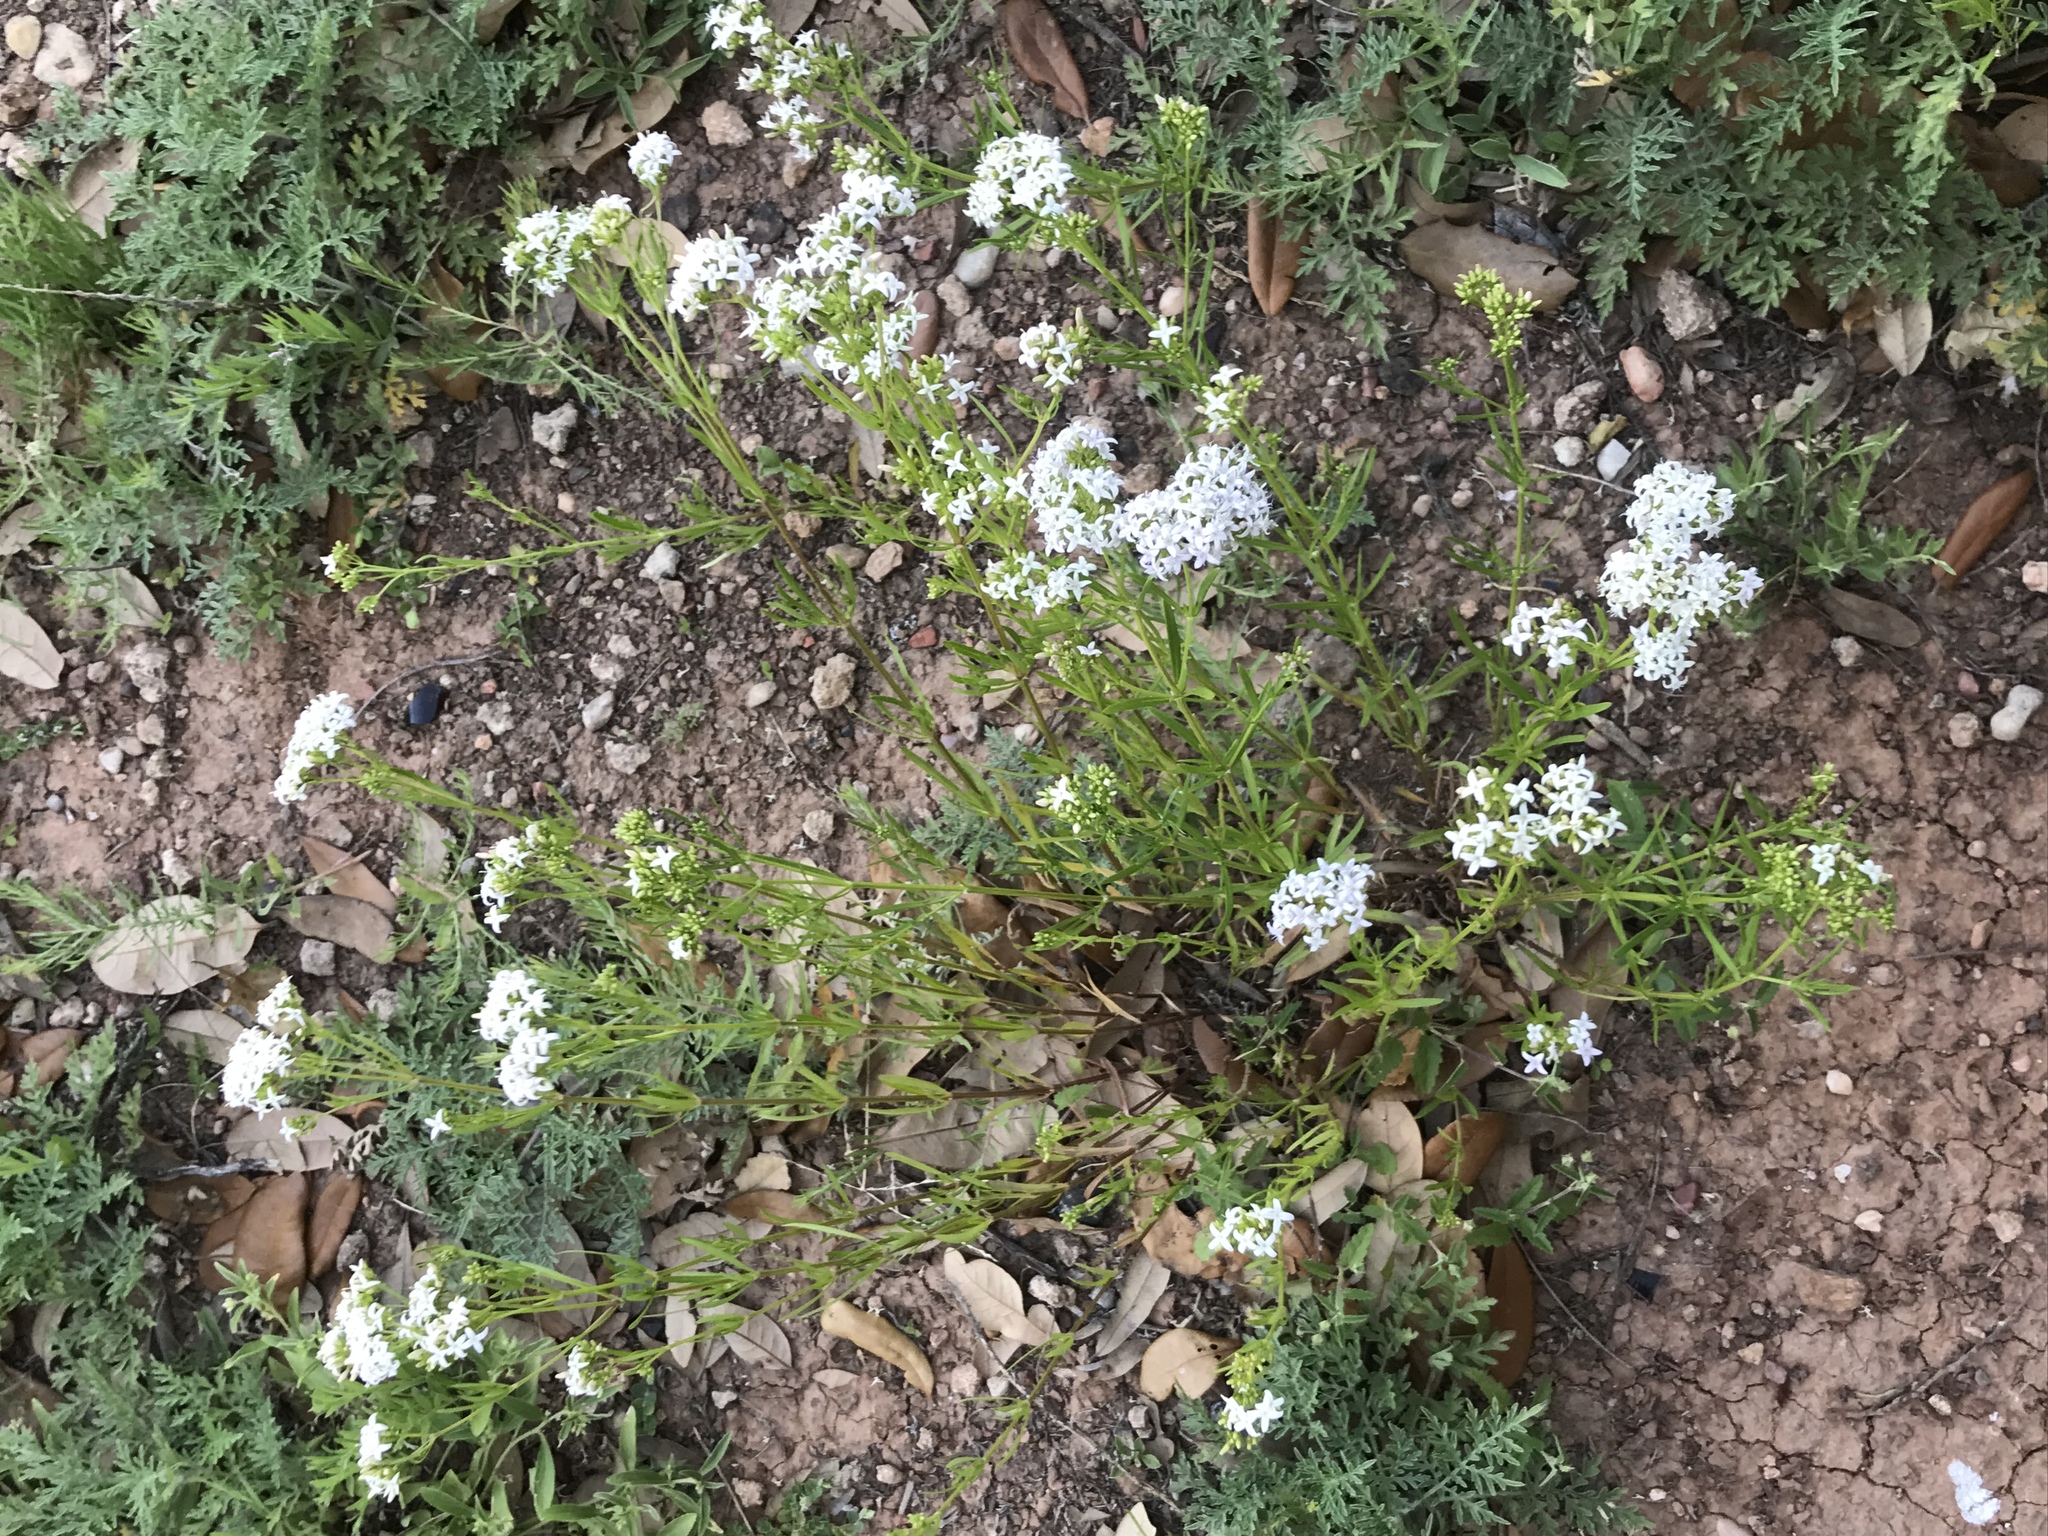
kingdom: Plantae
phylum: Tracheophyta
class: Magnoliopsida
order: Gentianales
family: Rubiaceae
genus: Stenaria
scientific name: Stenaria nigricans
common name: Diamondflowers
